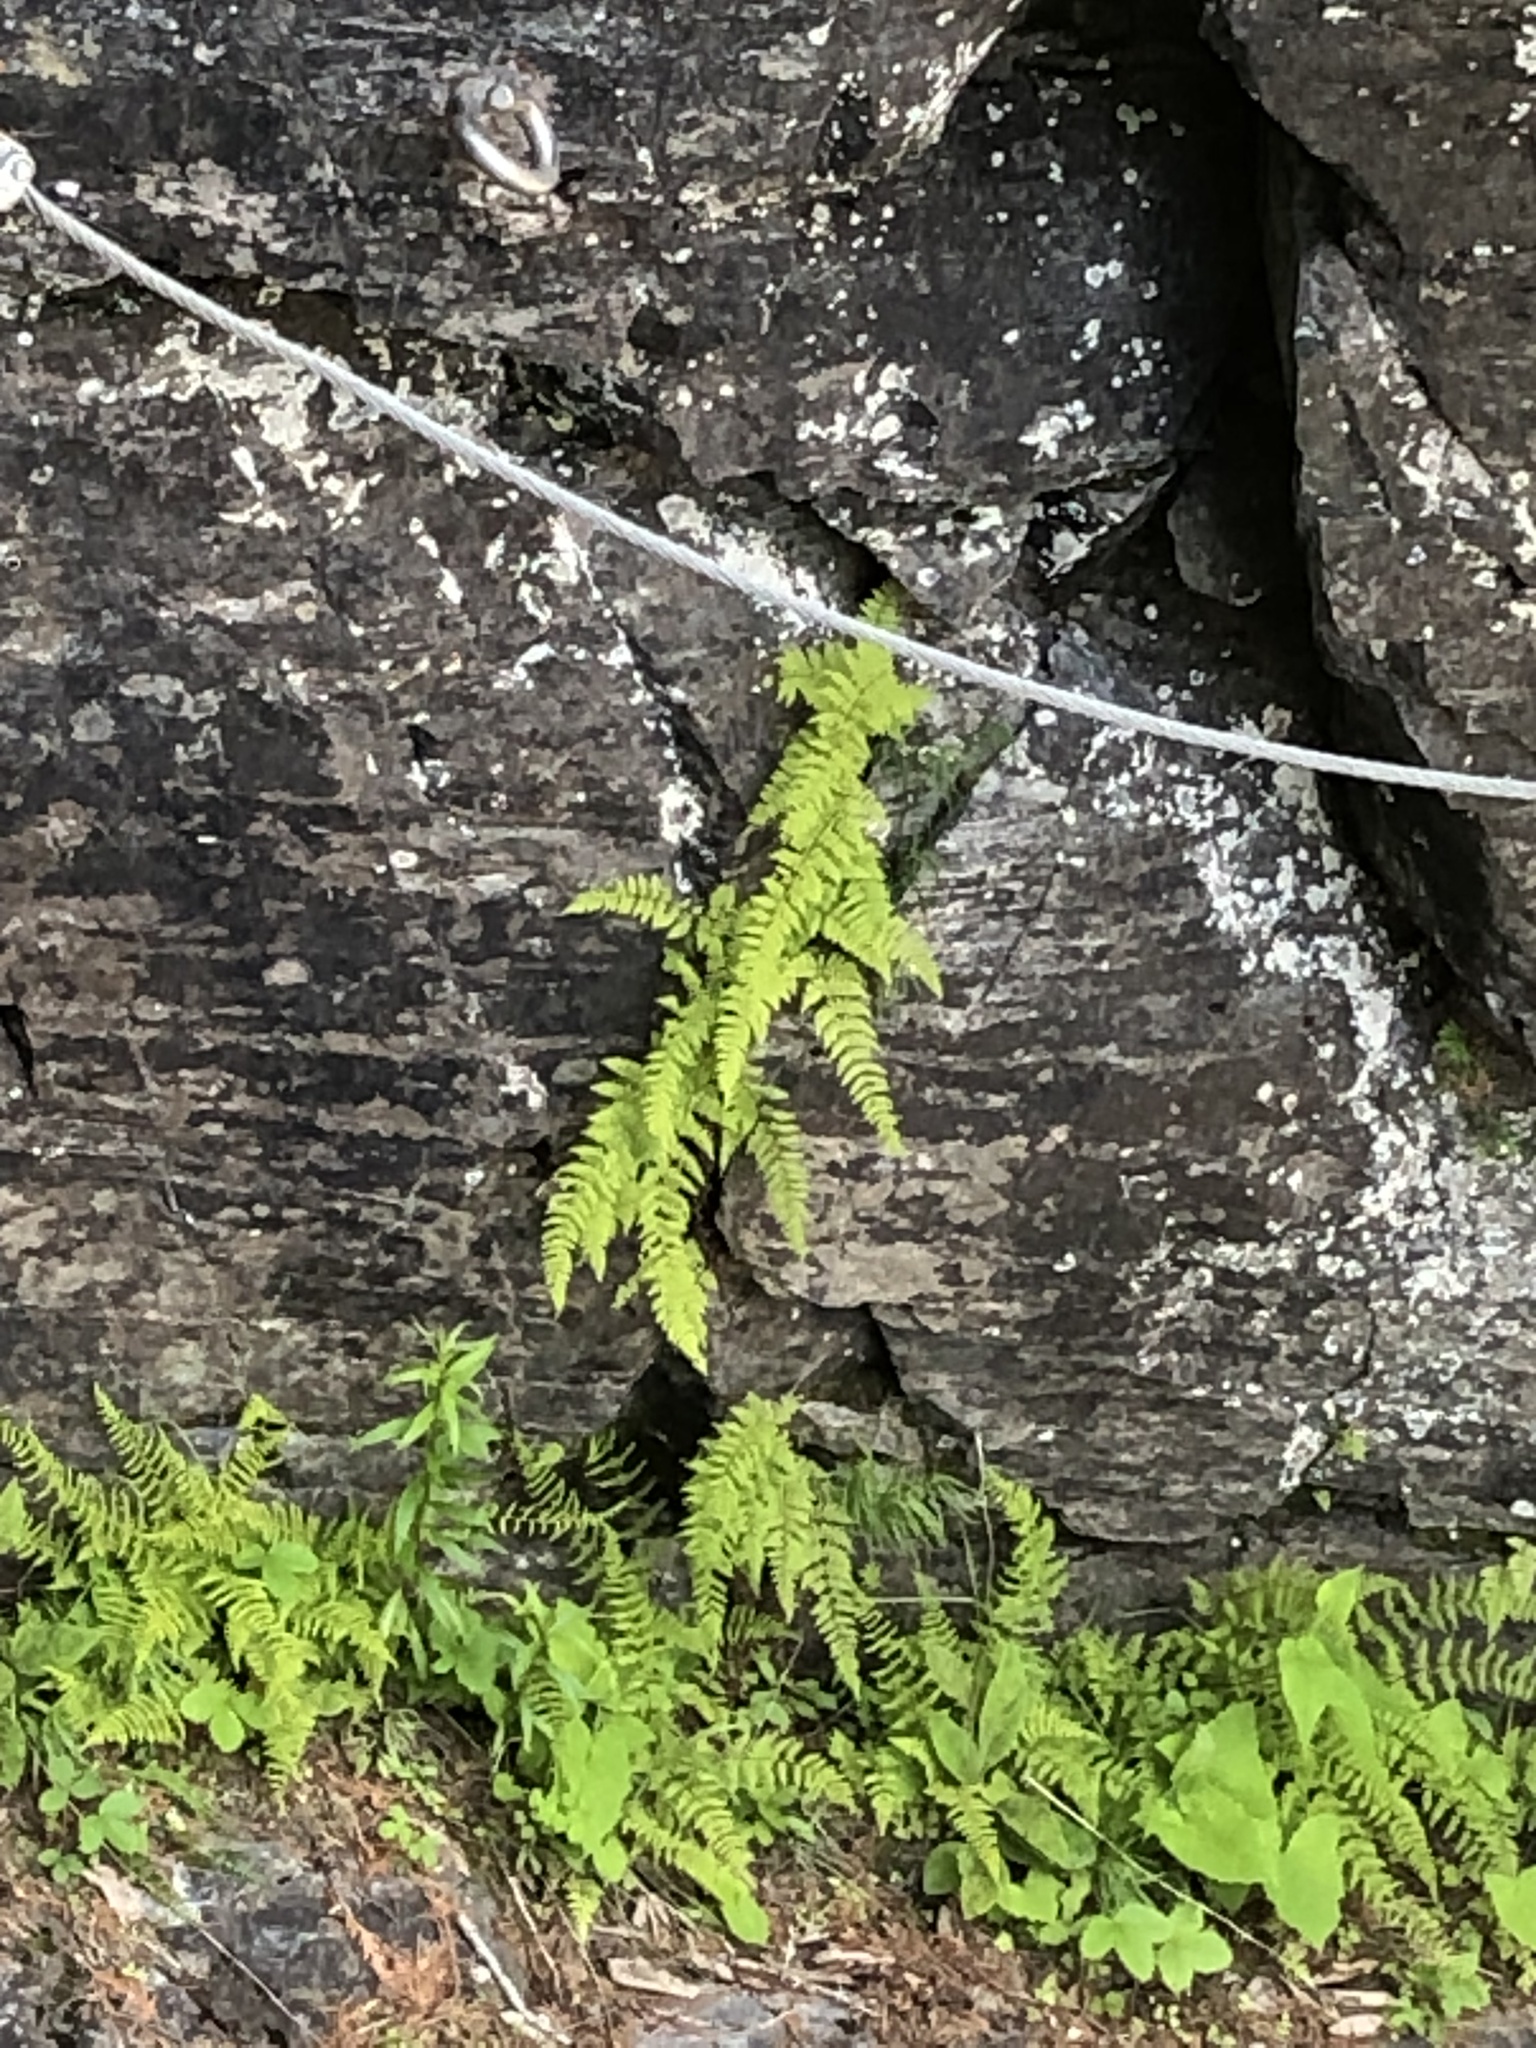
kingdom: Plantae
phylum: Tracheophyta
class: Polypodiopsida
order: Polypodiales
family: Cystopteridaceae
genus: Cystopteris
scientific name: Cystopteris bulbifera
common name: Bulblet bladder fern
